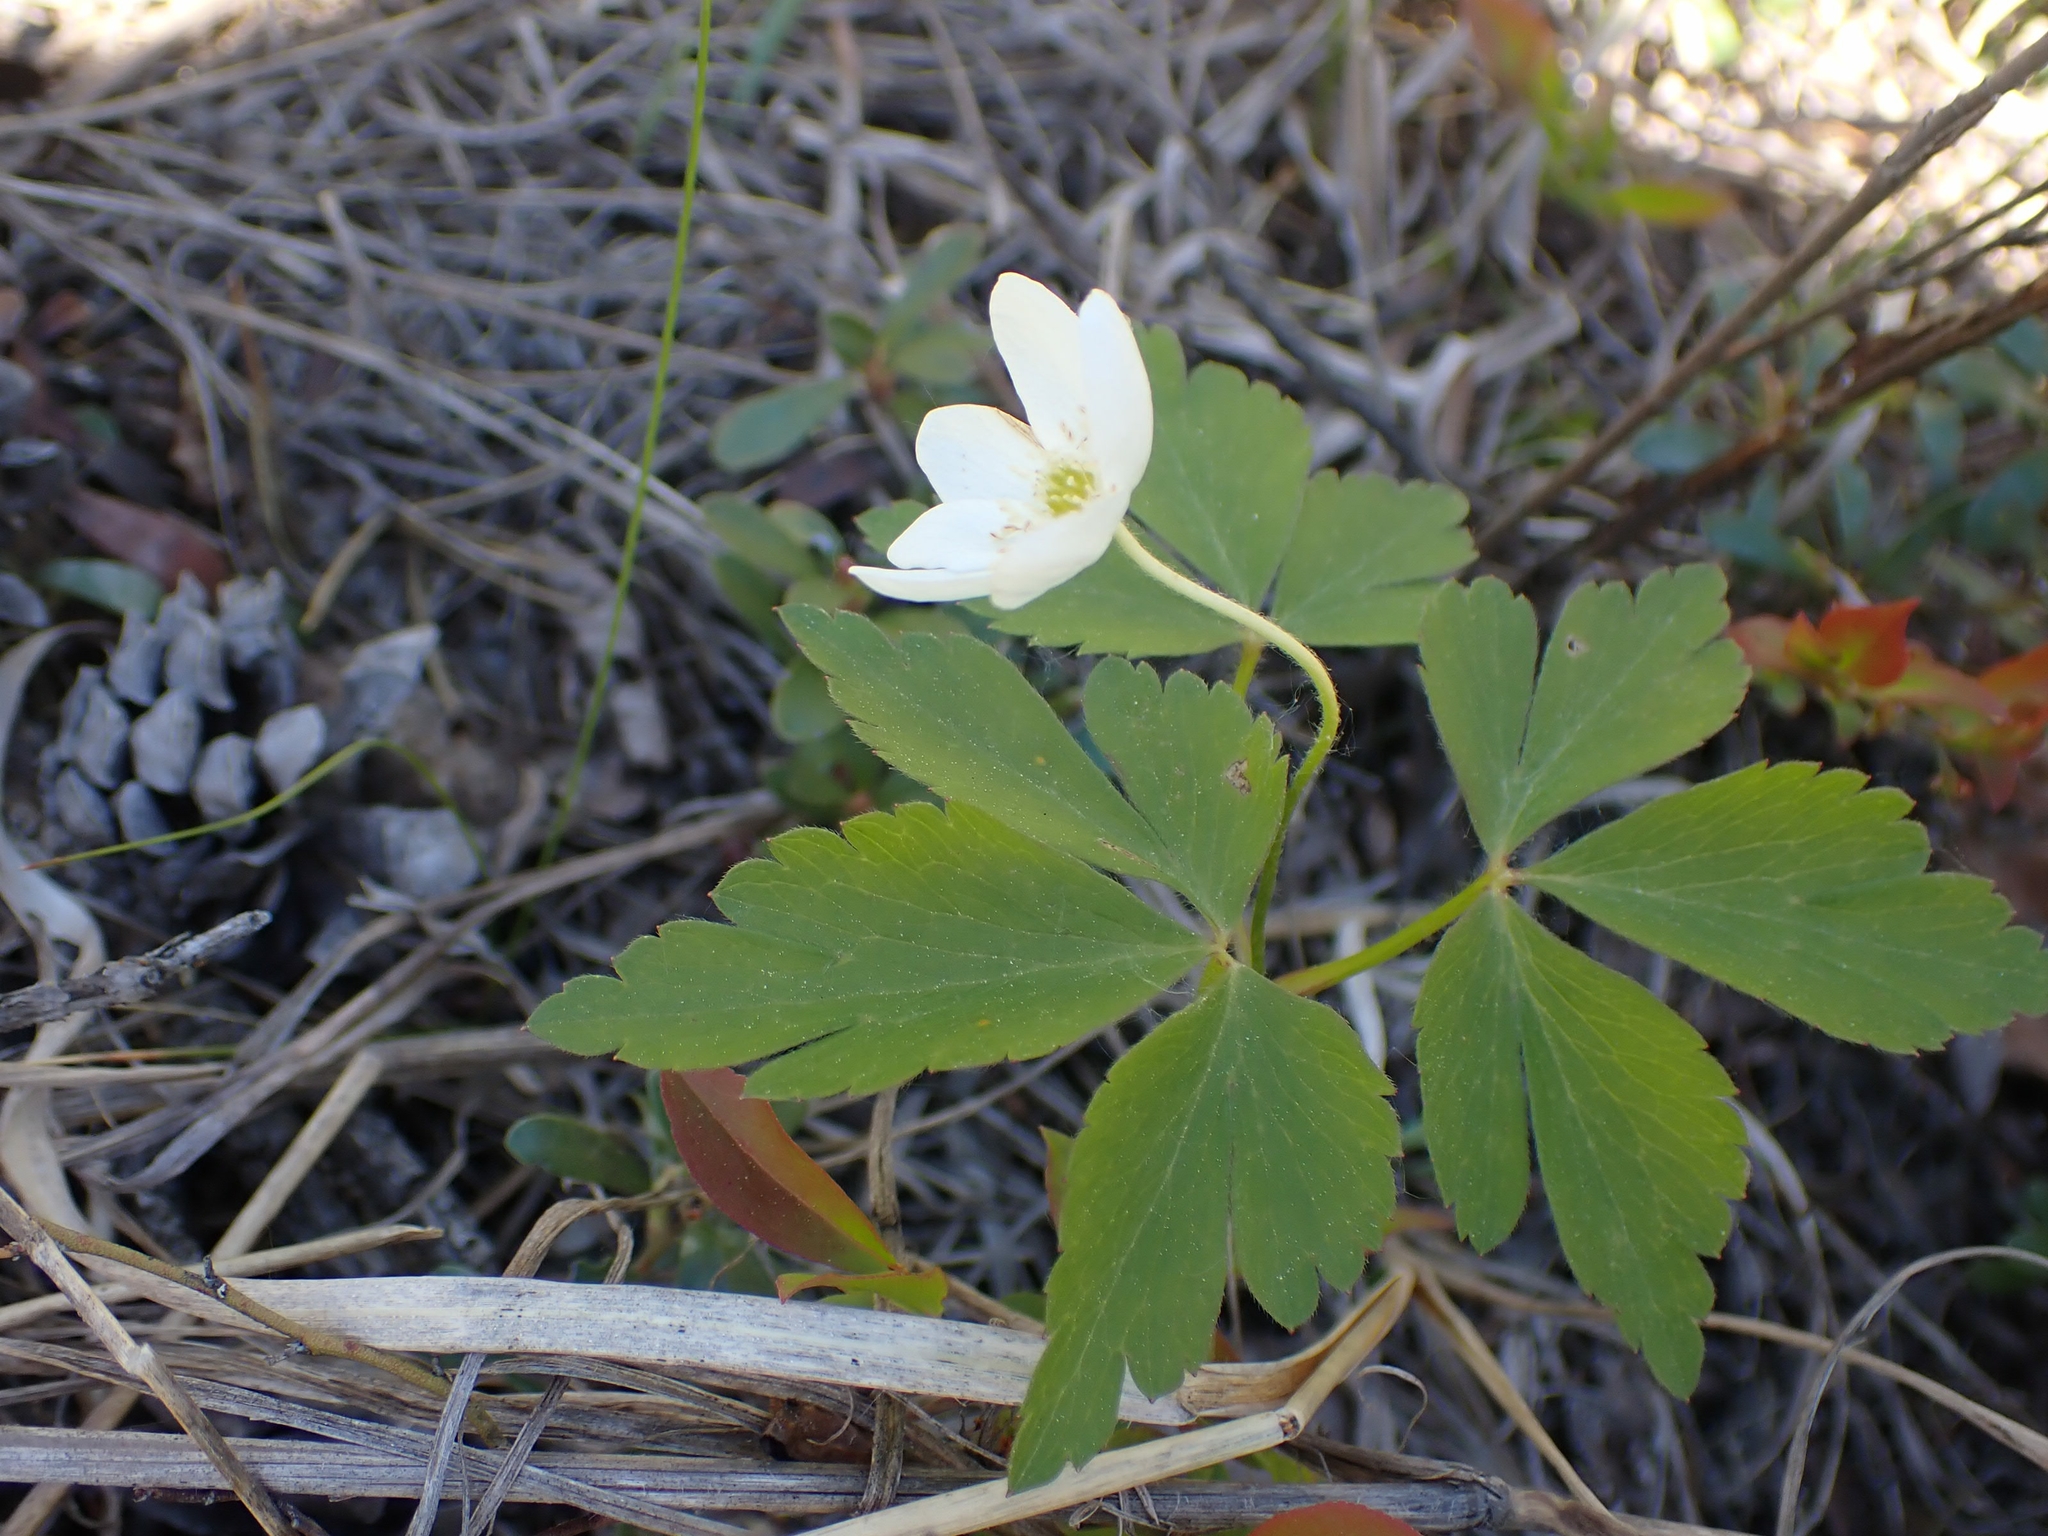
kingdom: Plantae
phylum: Tracheophyta
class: Magnoliopsida
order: Ranunculales
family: Ranunculaceae
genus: Anemone
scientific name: Anemone quinquefolia
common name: Wood anemone
